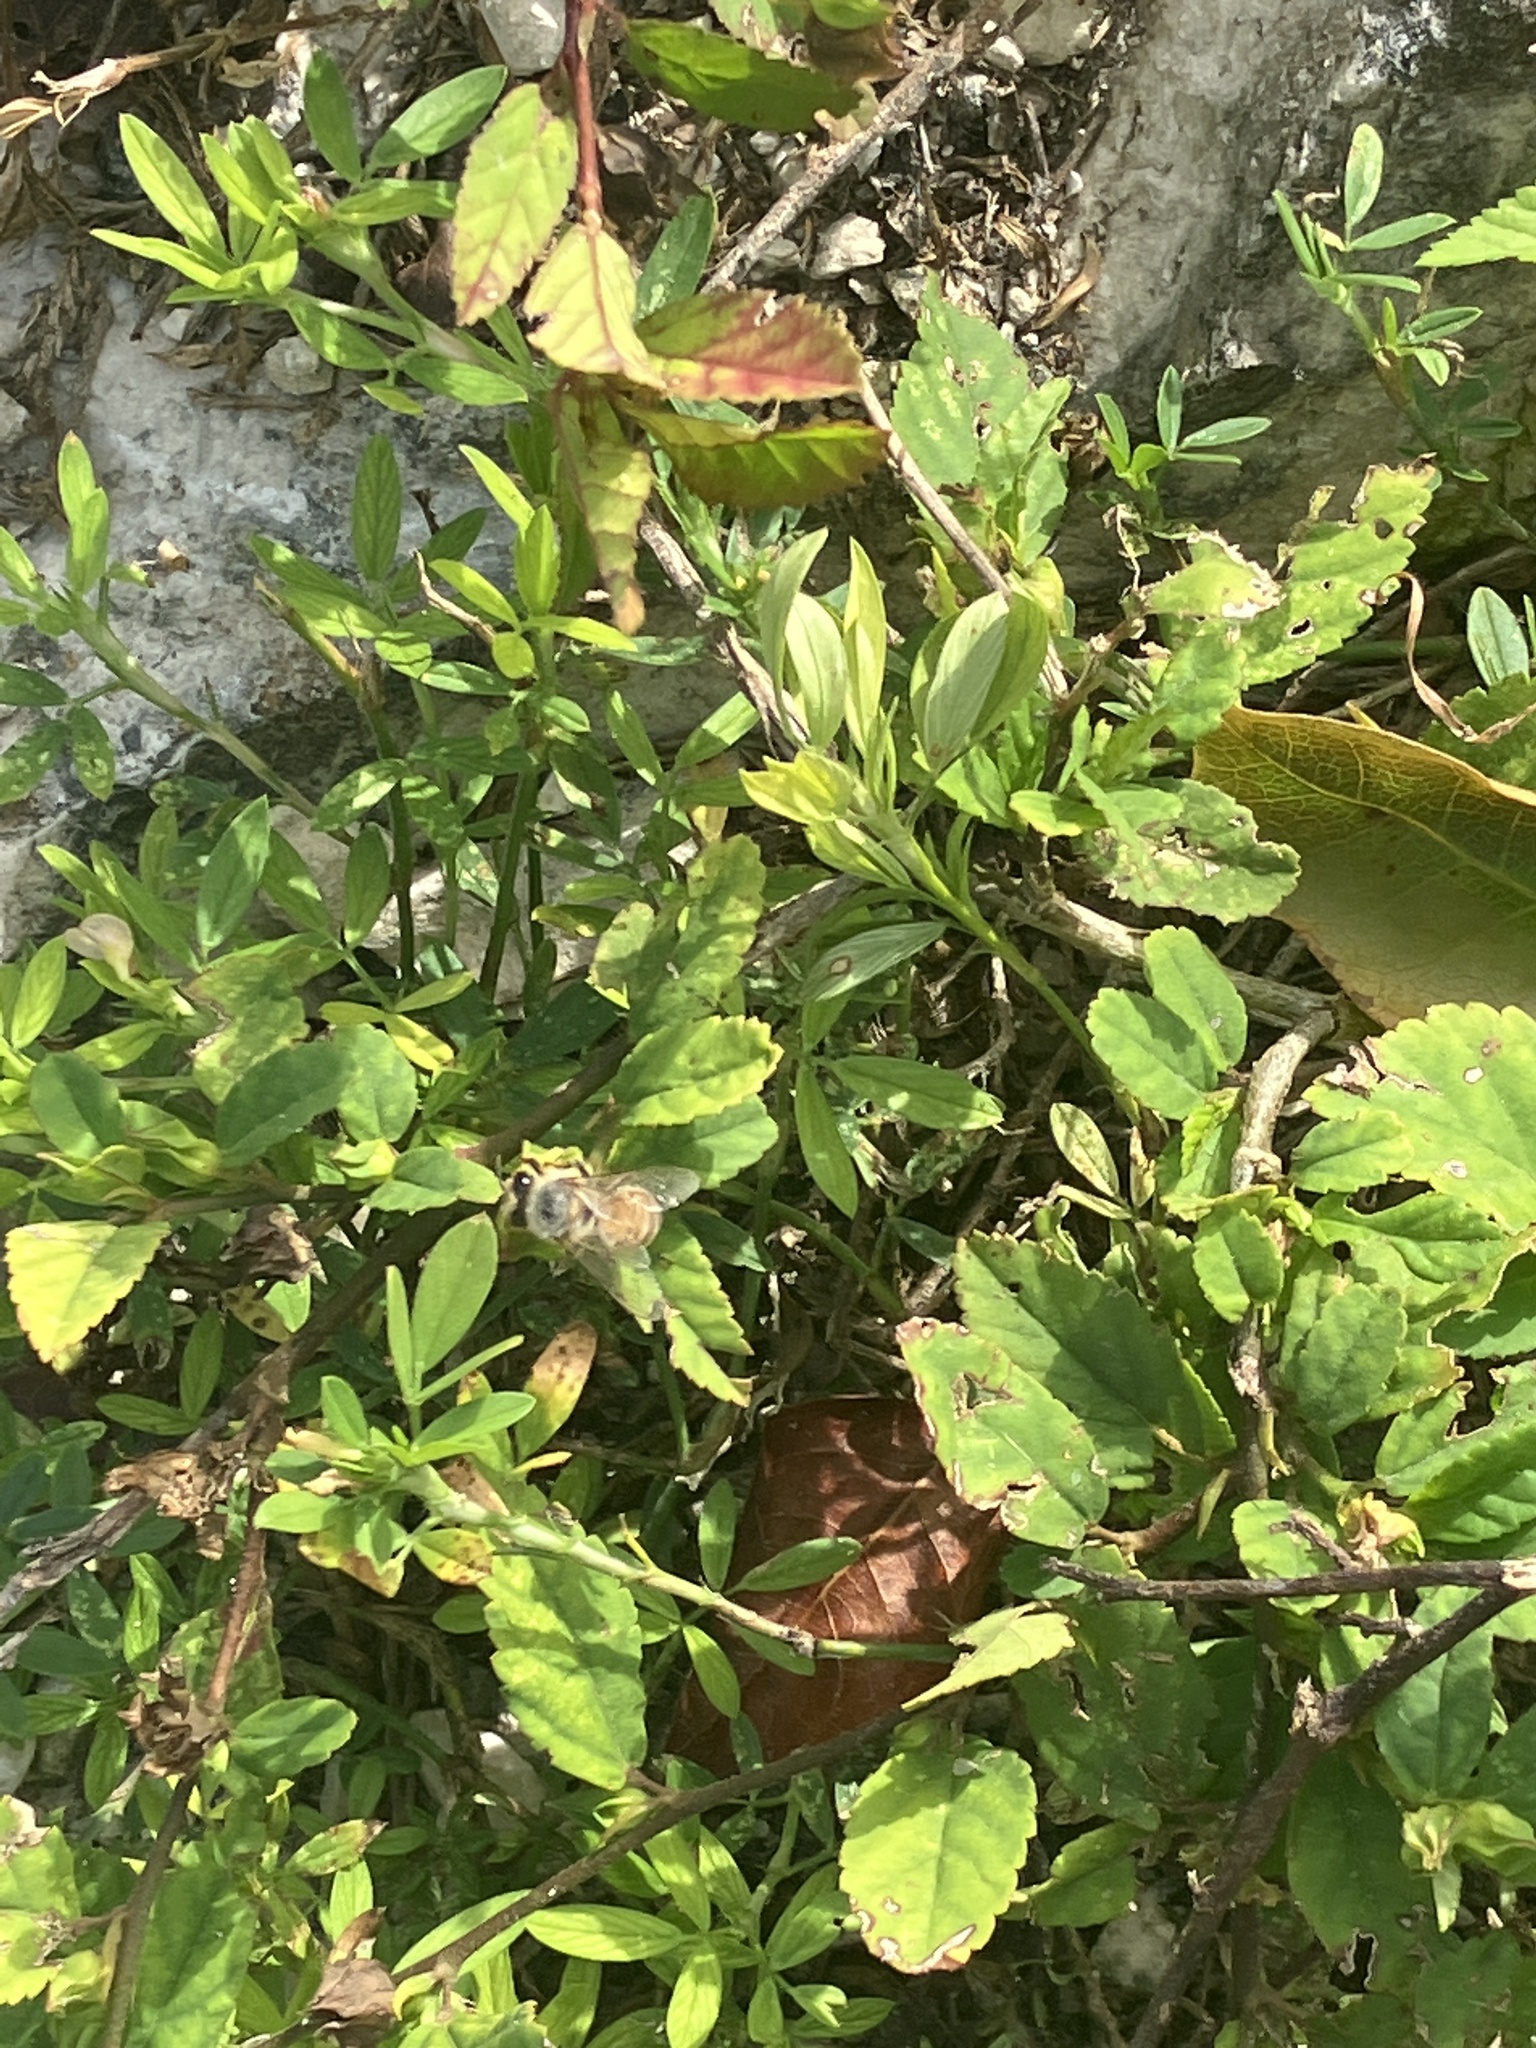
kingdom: Animalia
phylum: Arthropoda
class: Insecta
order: Hymenoptera
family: Apidae
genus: Apis
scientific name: Apis mellifera
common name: Honey bee
